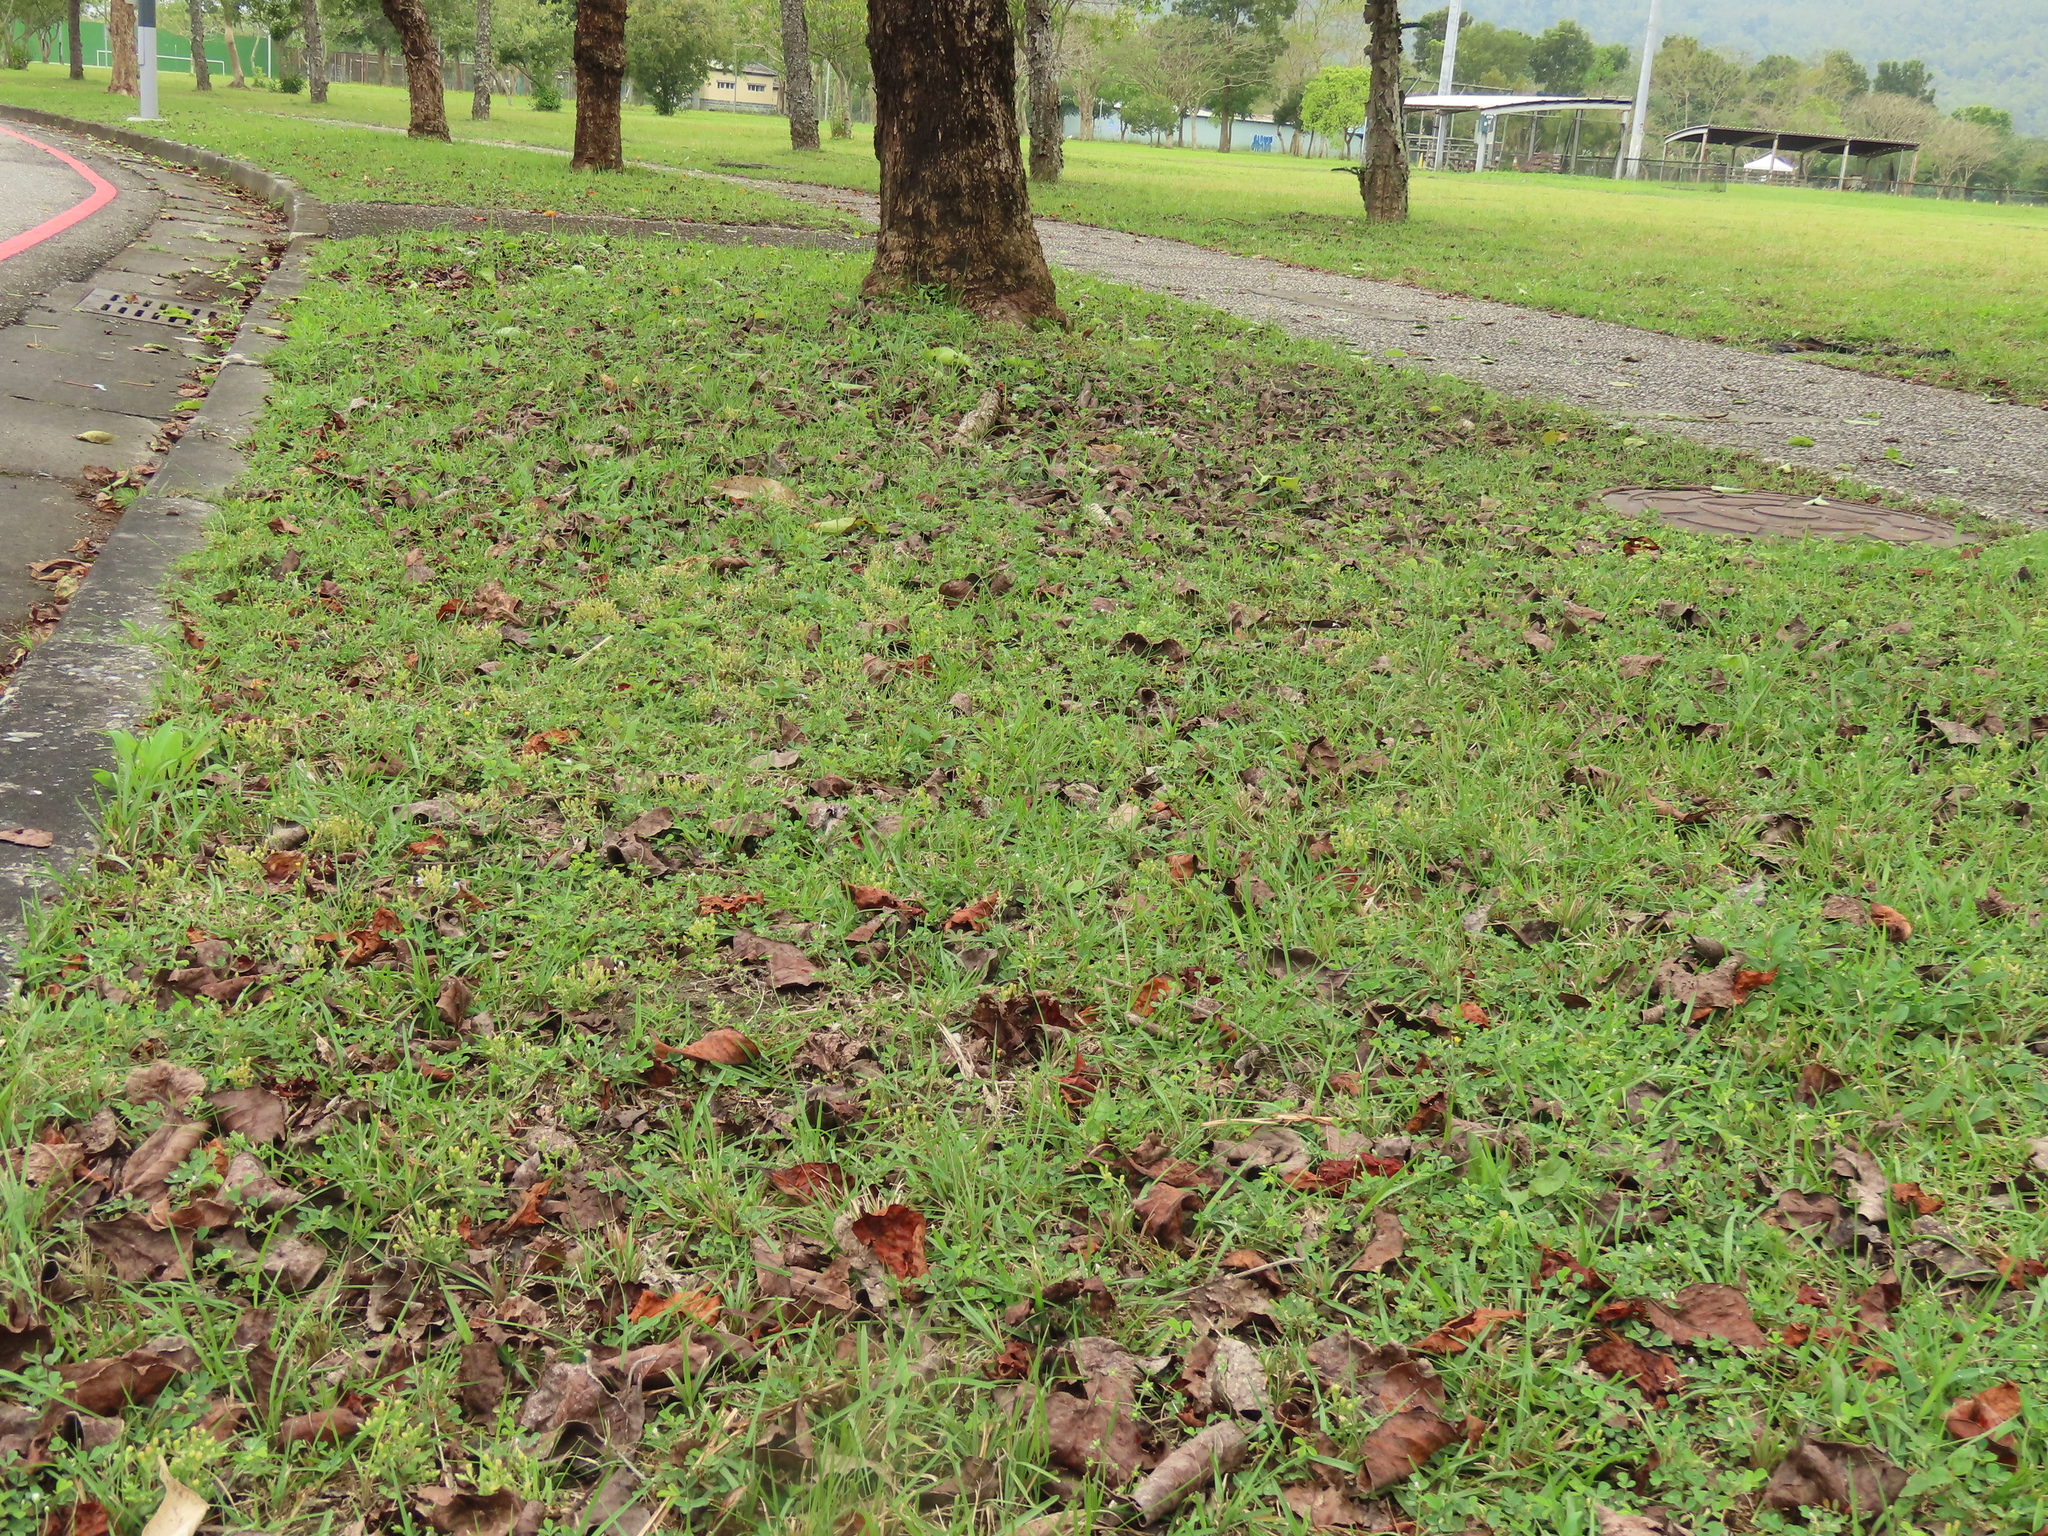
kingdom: Plantae
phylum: Tracheophyta
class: Magnoliopsida
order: Gentianales
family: Gentianaceae
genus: Gentiana
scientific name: Gentiana yokusai
